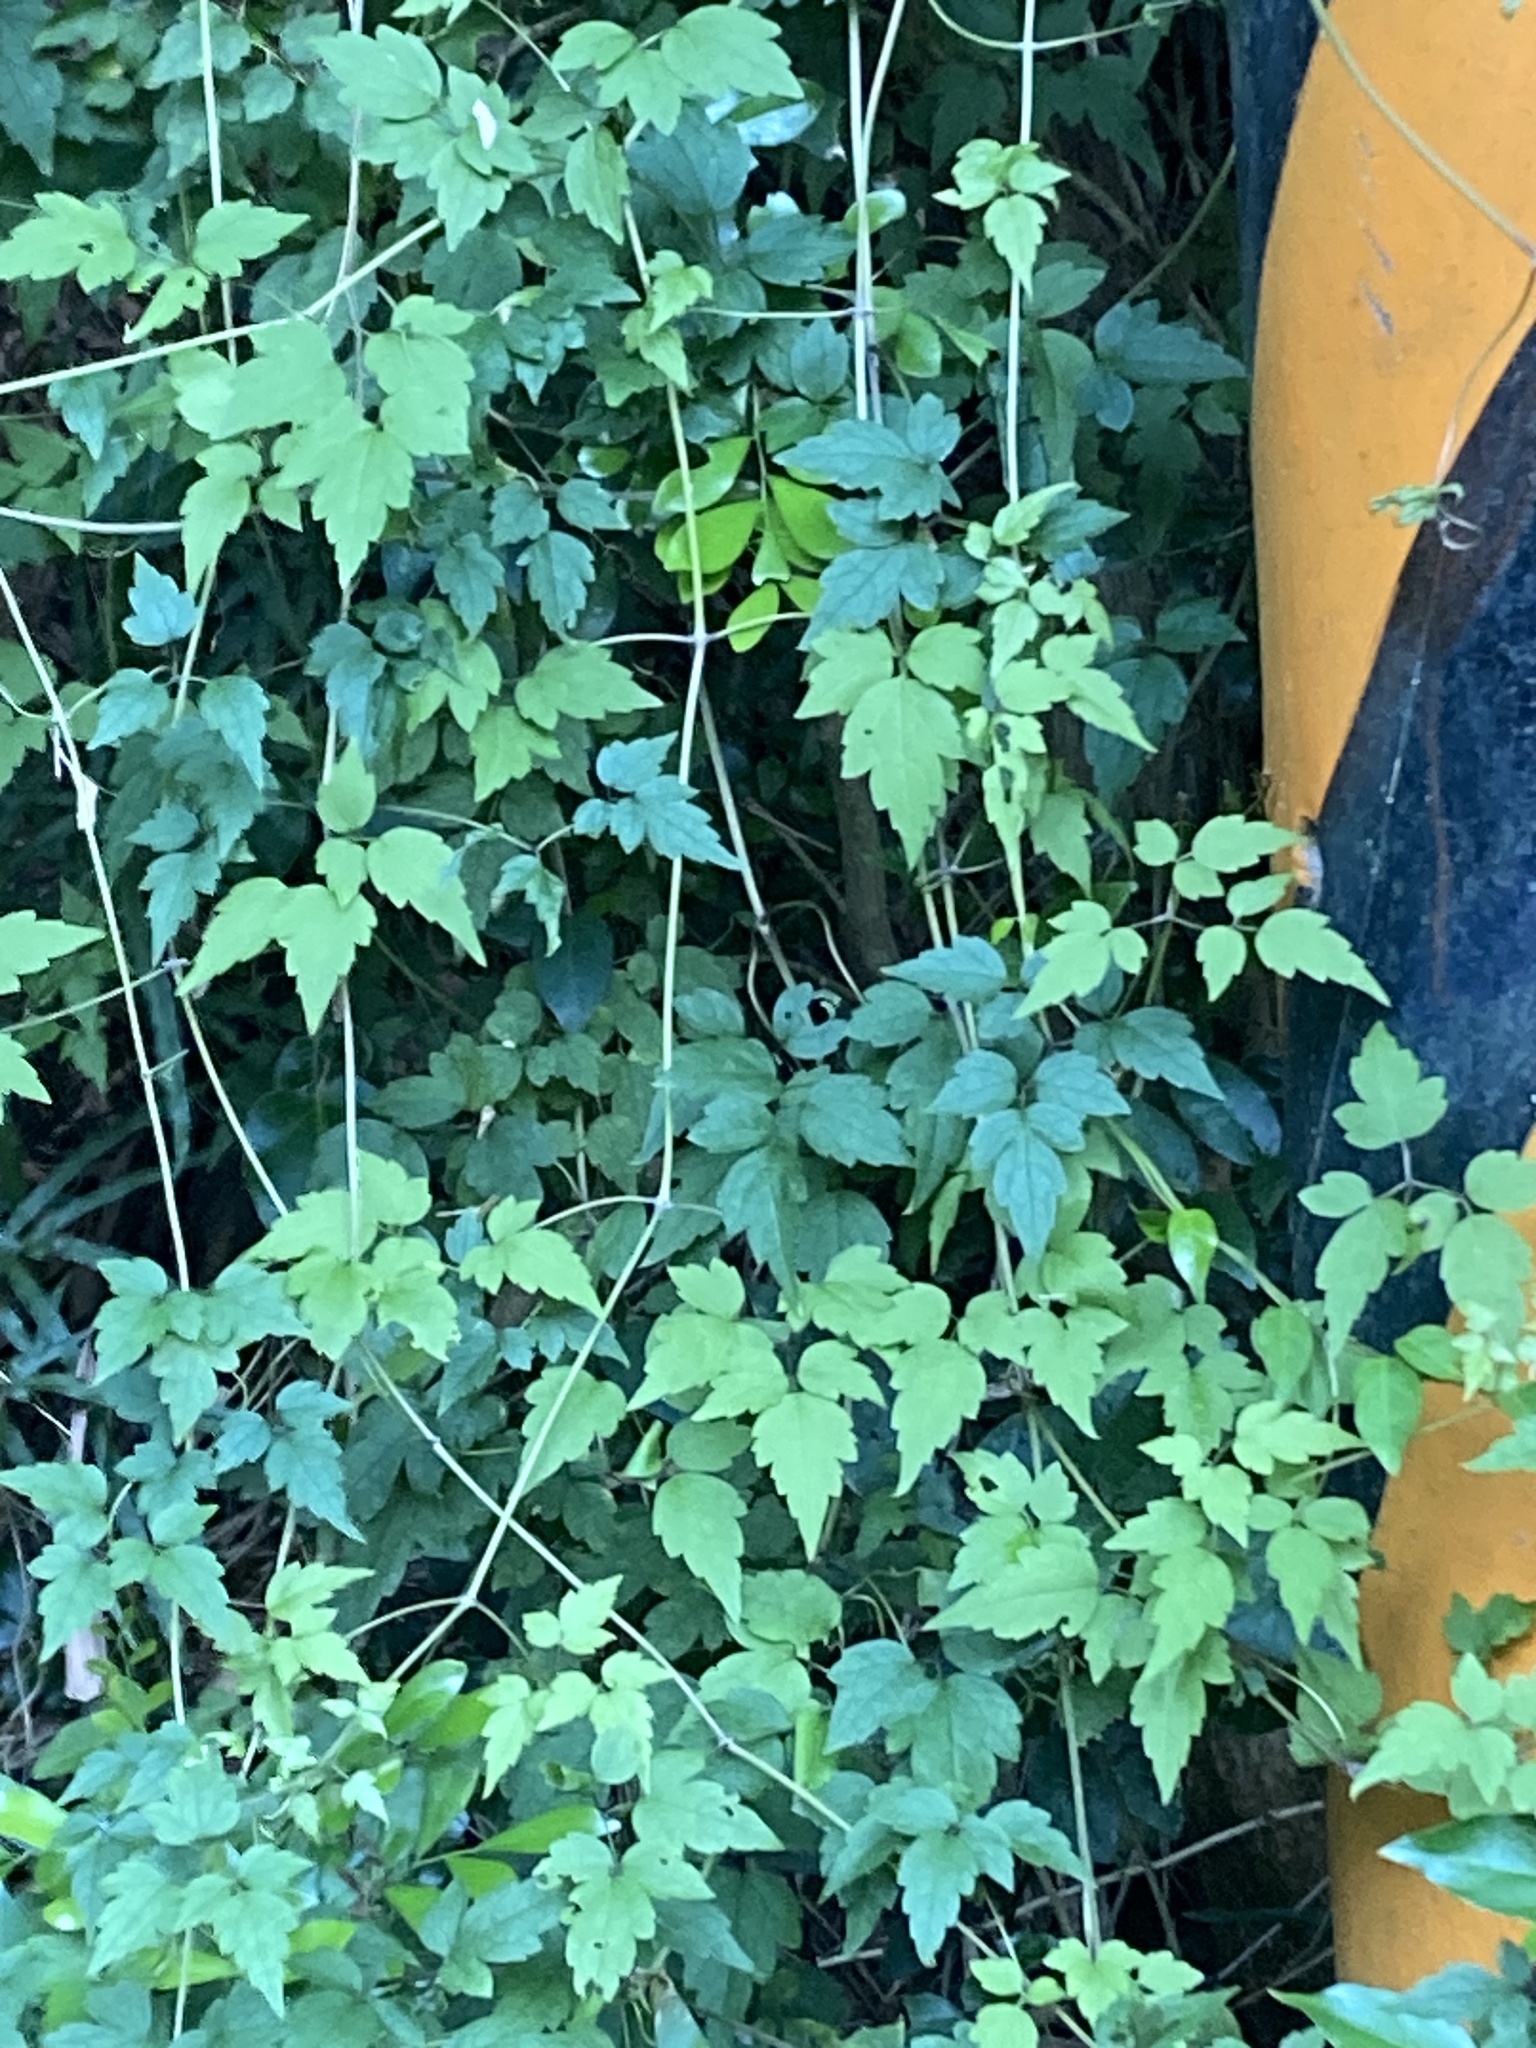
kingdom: Plantae
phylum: Tracheophyta
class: Magnoliopsida
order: Ranunculales
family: Ranunculaceae
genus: Clematis
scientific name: Clematis grata
